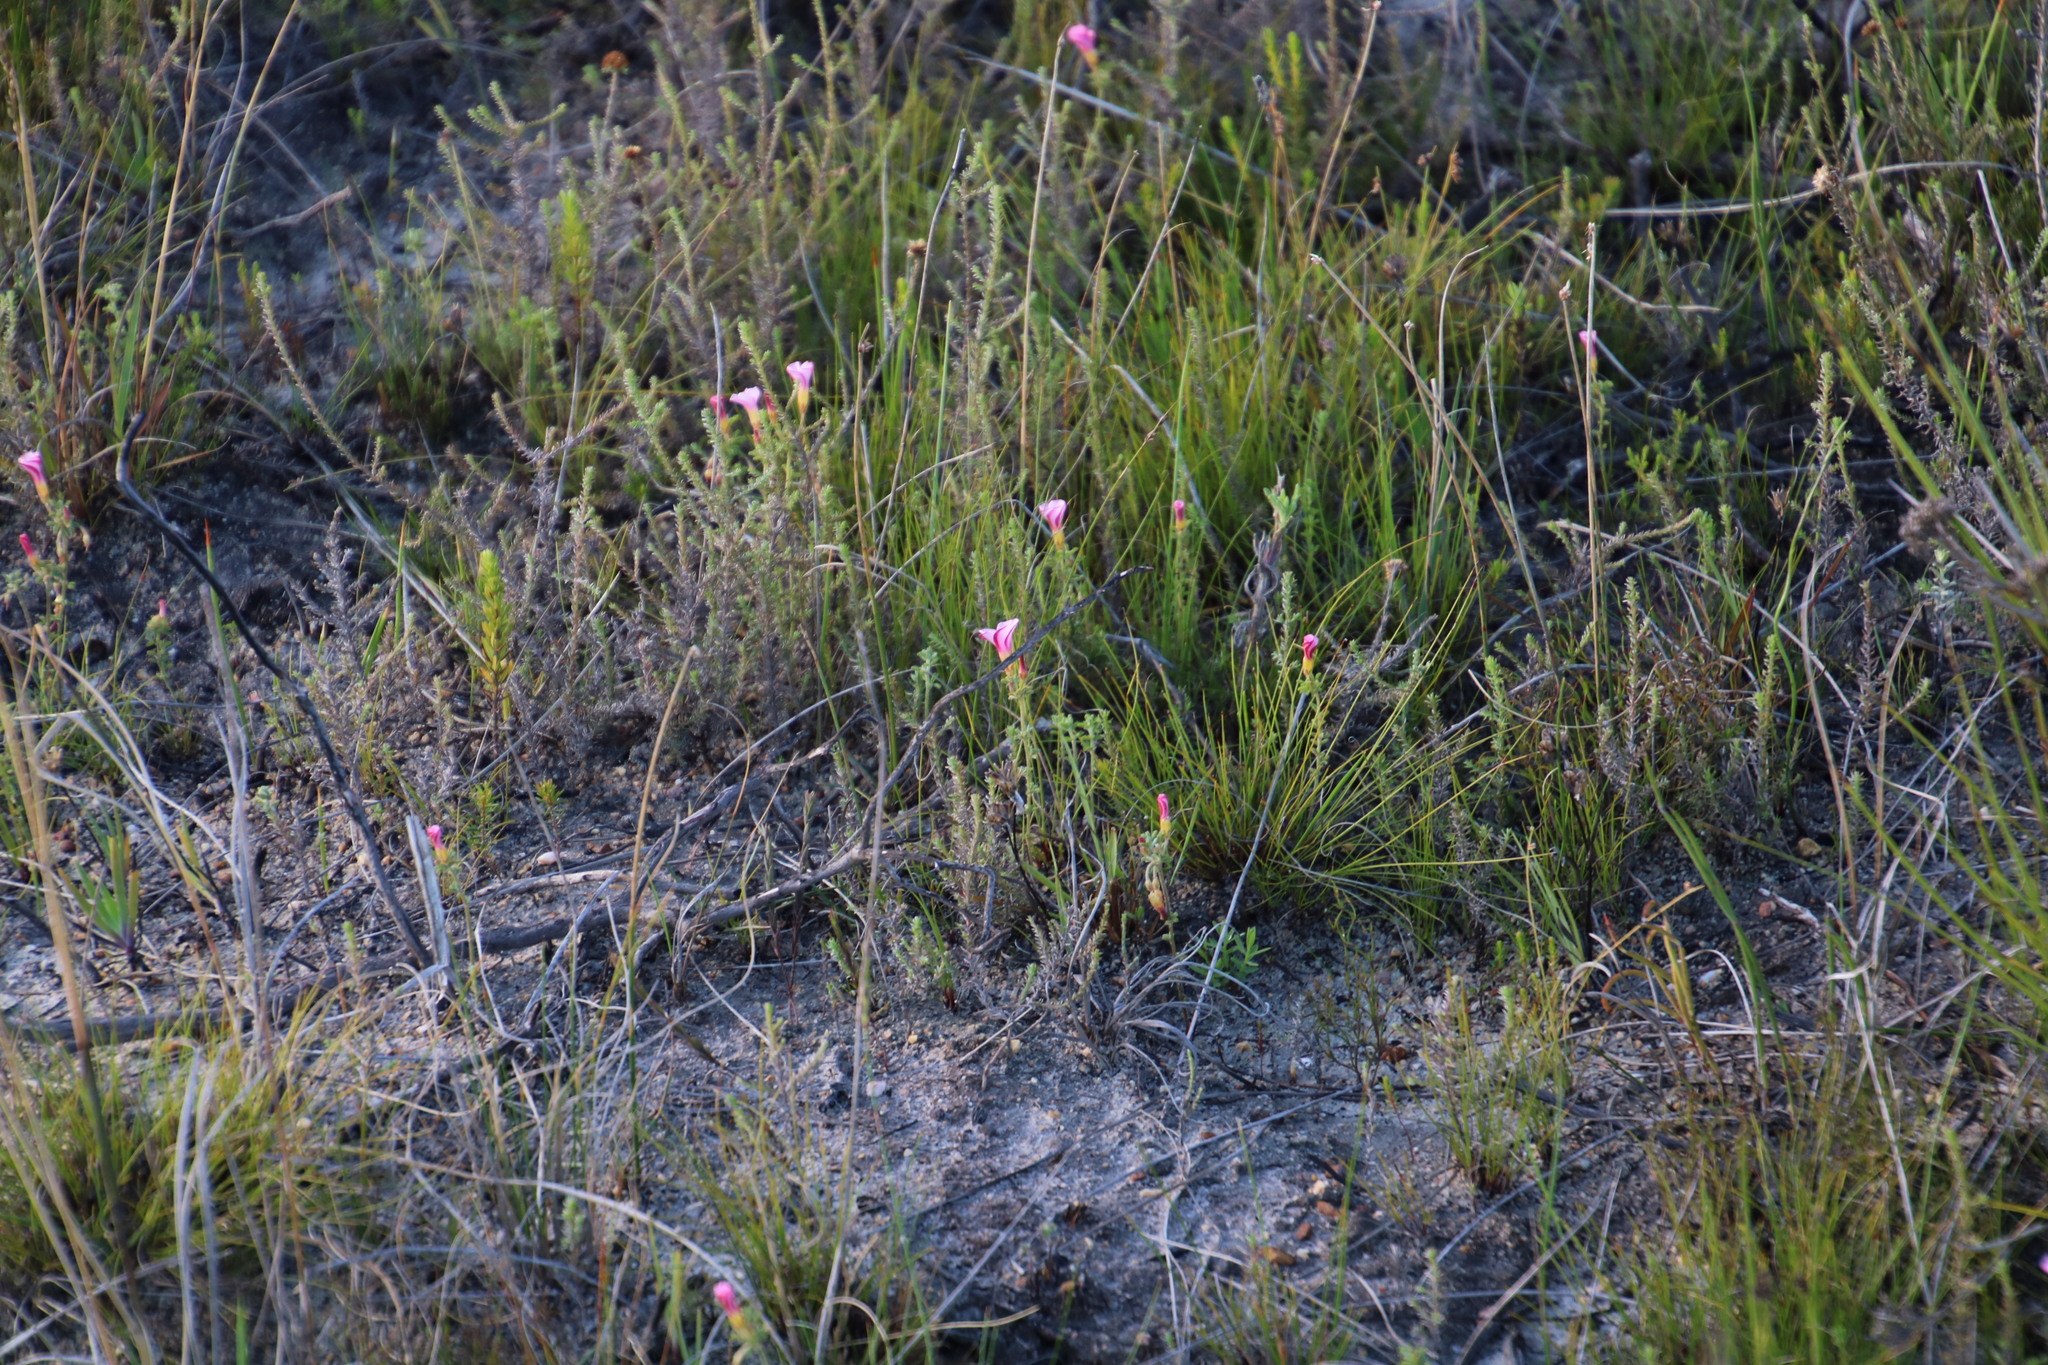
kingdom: Plantae
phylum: Tracheophyta
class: Magnoliopsida
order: Oxalidales
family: Oxalidaceae
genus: Oxalis
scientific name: Oxalis multicaulis
